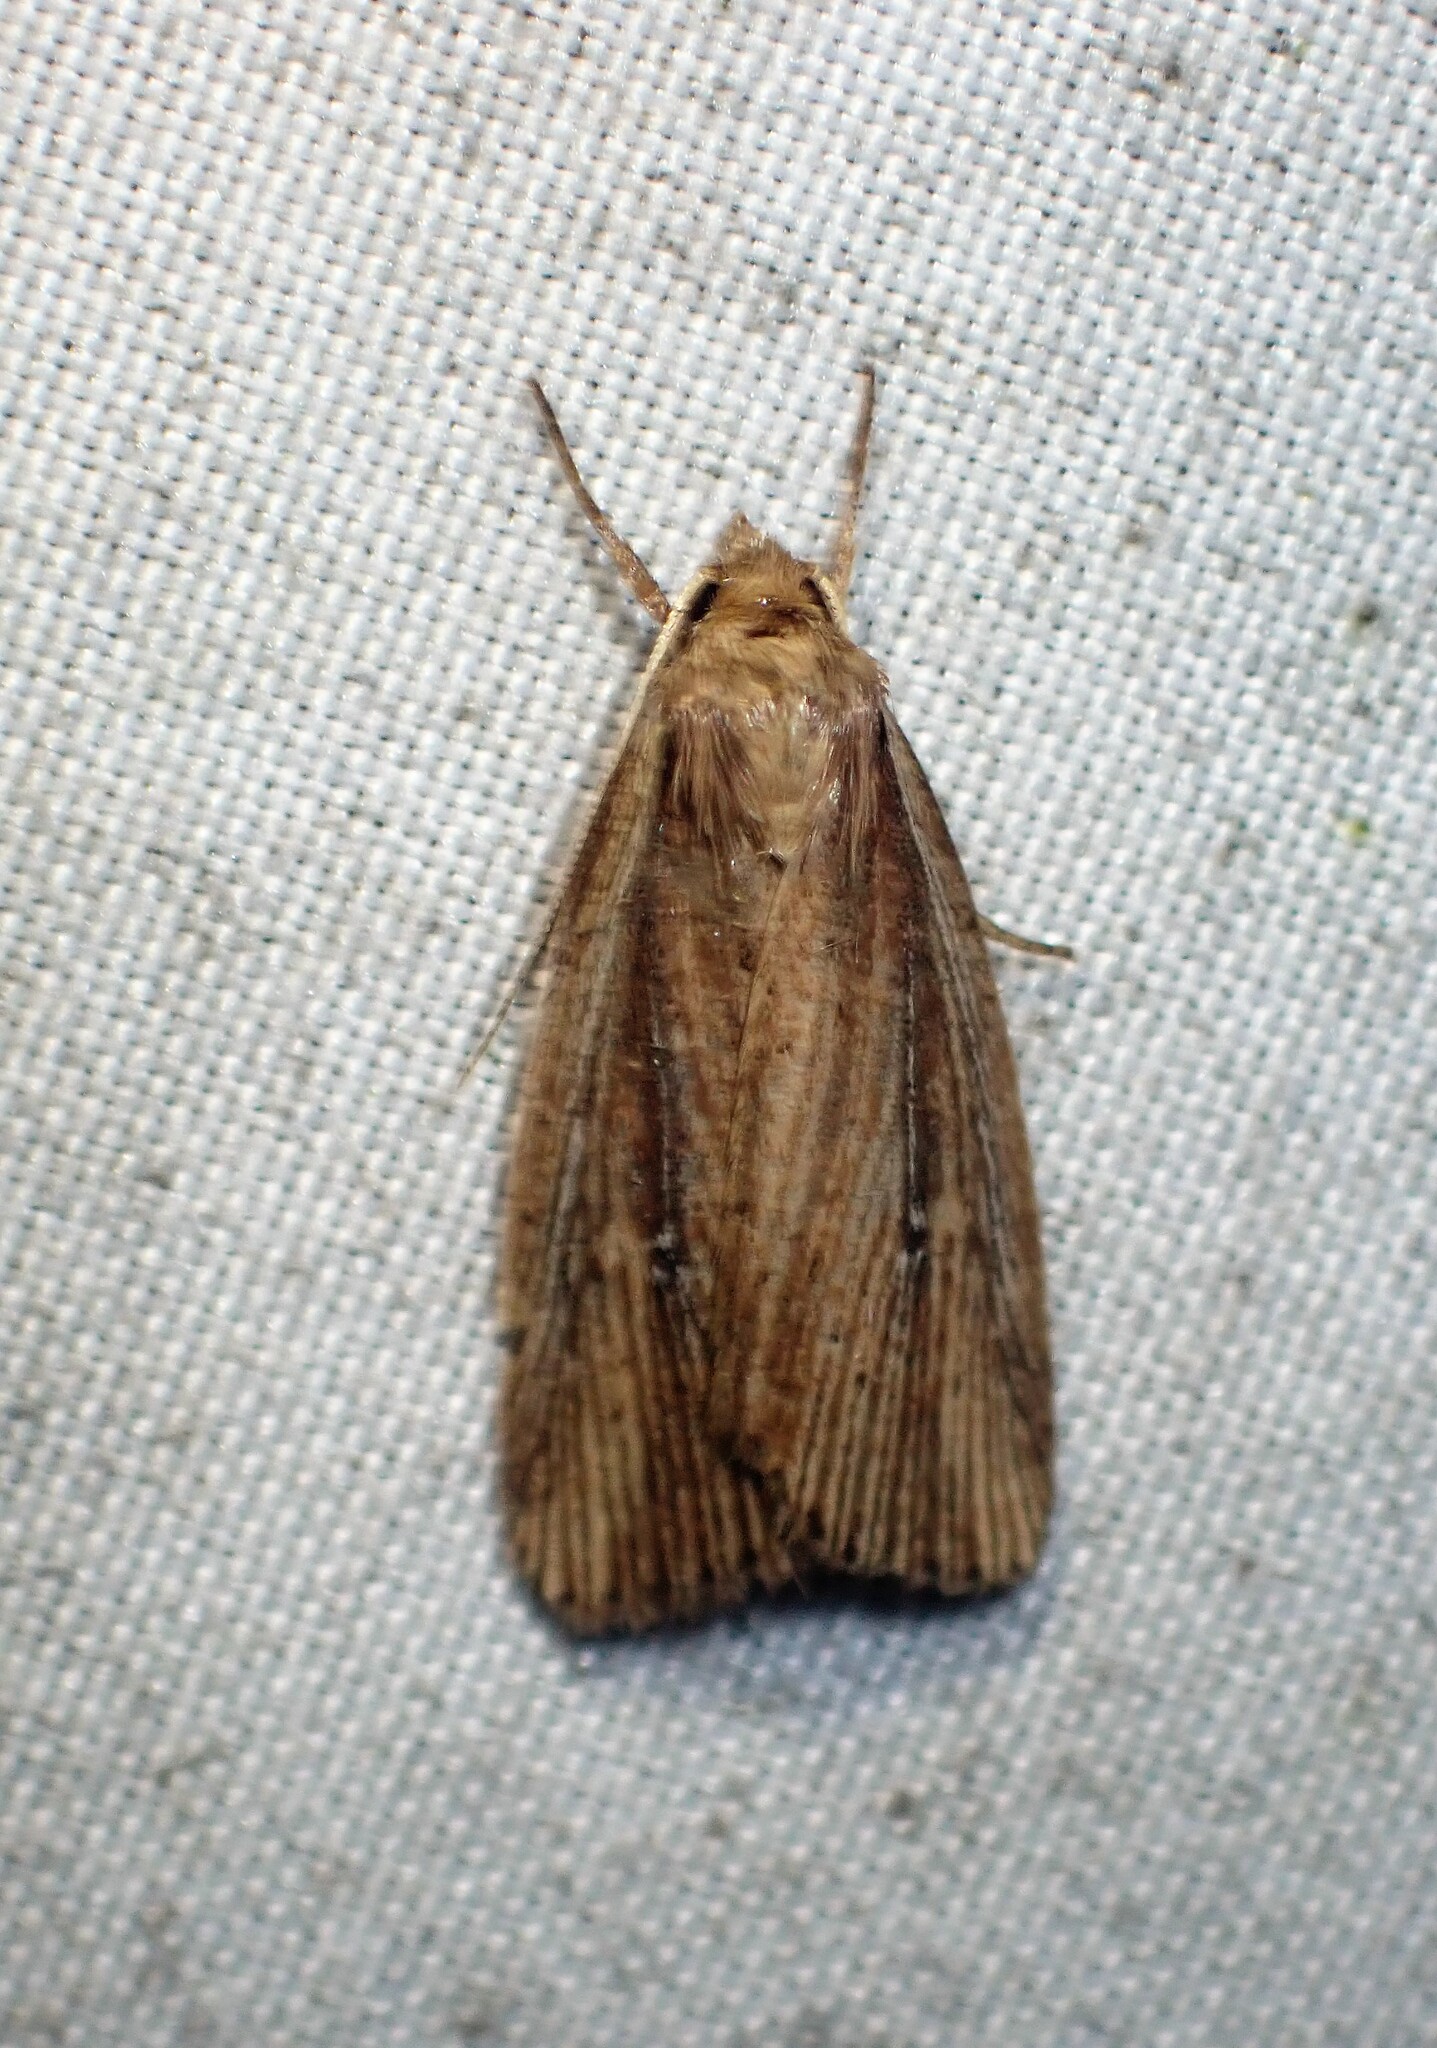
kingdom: Animalia
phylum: Arthropoda
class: Insecta
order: Lepidoptera
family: Noctuidae
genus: Photedes
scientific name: Photedes defecta
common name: Narrow-winged borer moth
